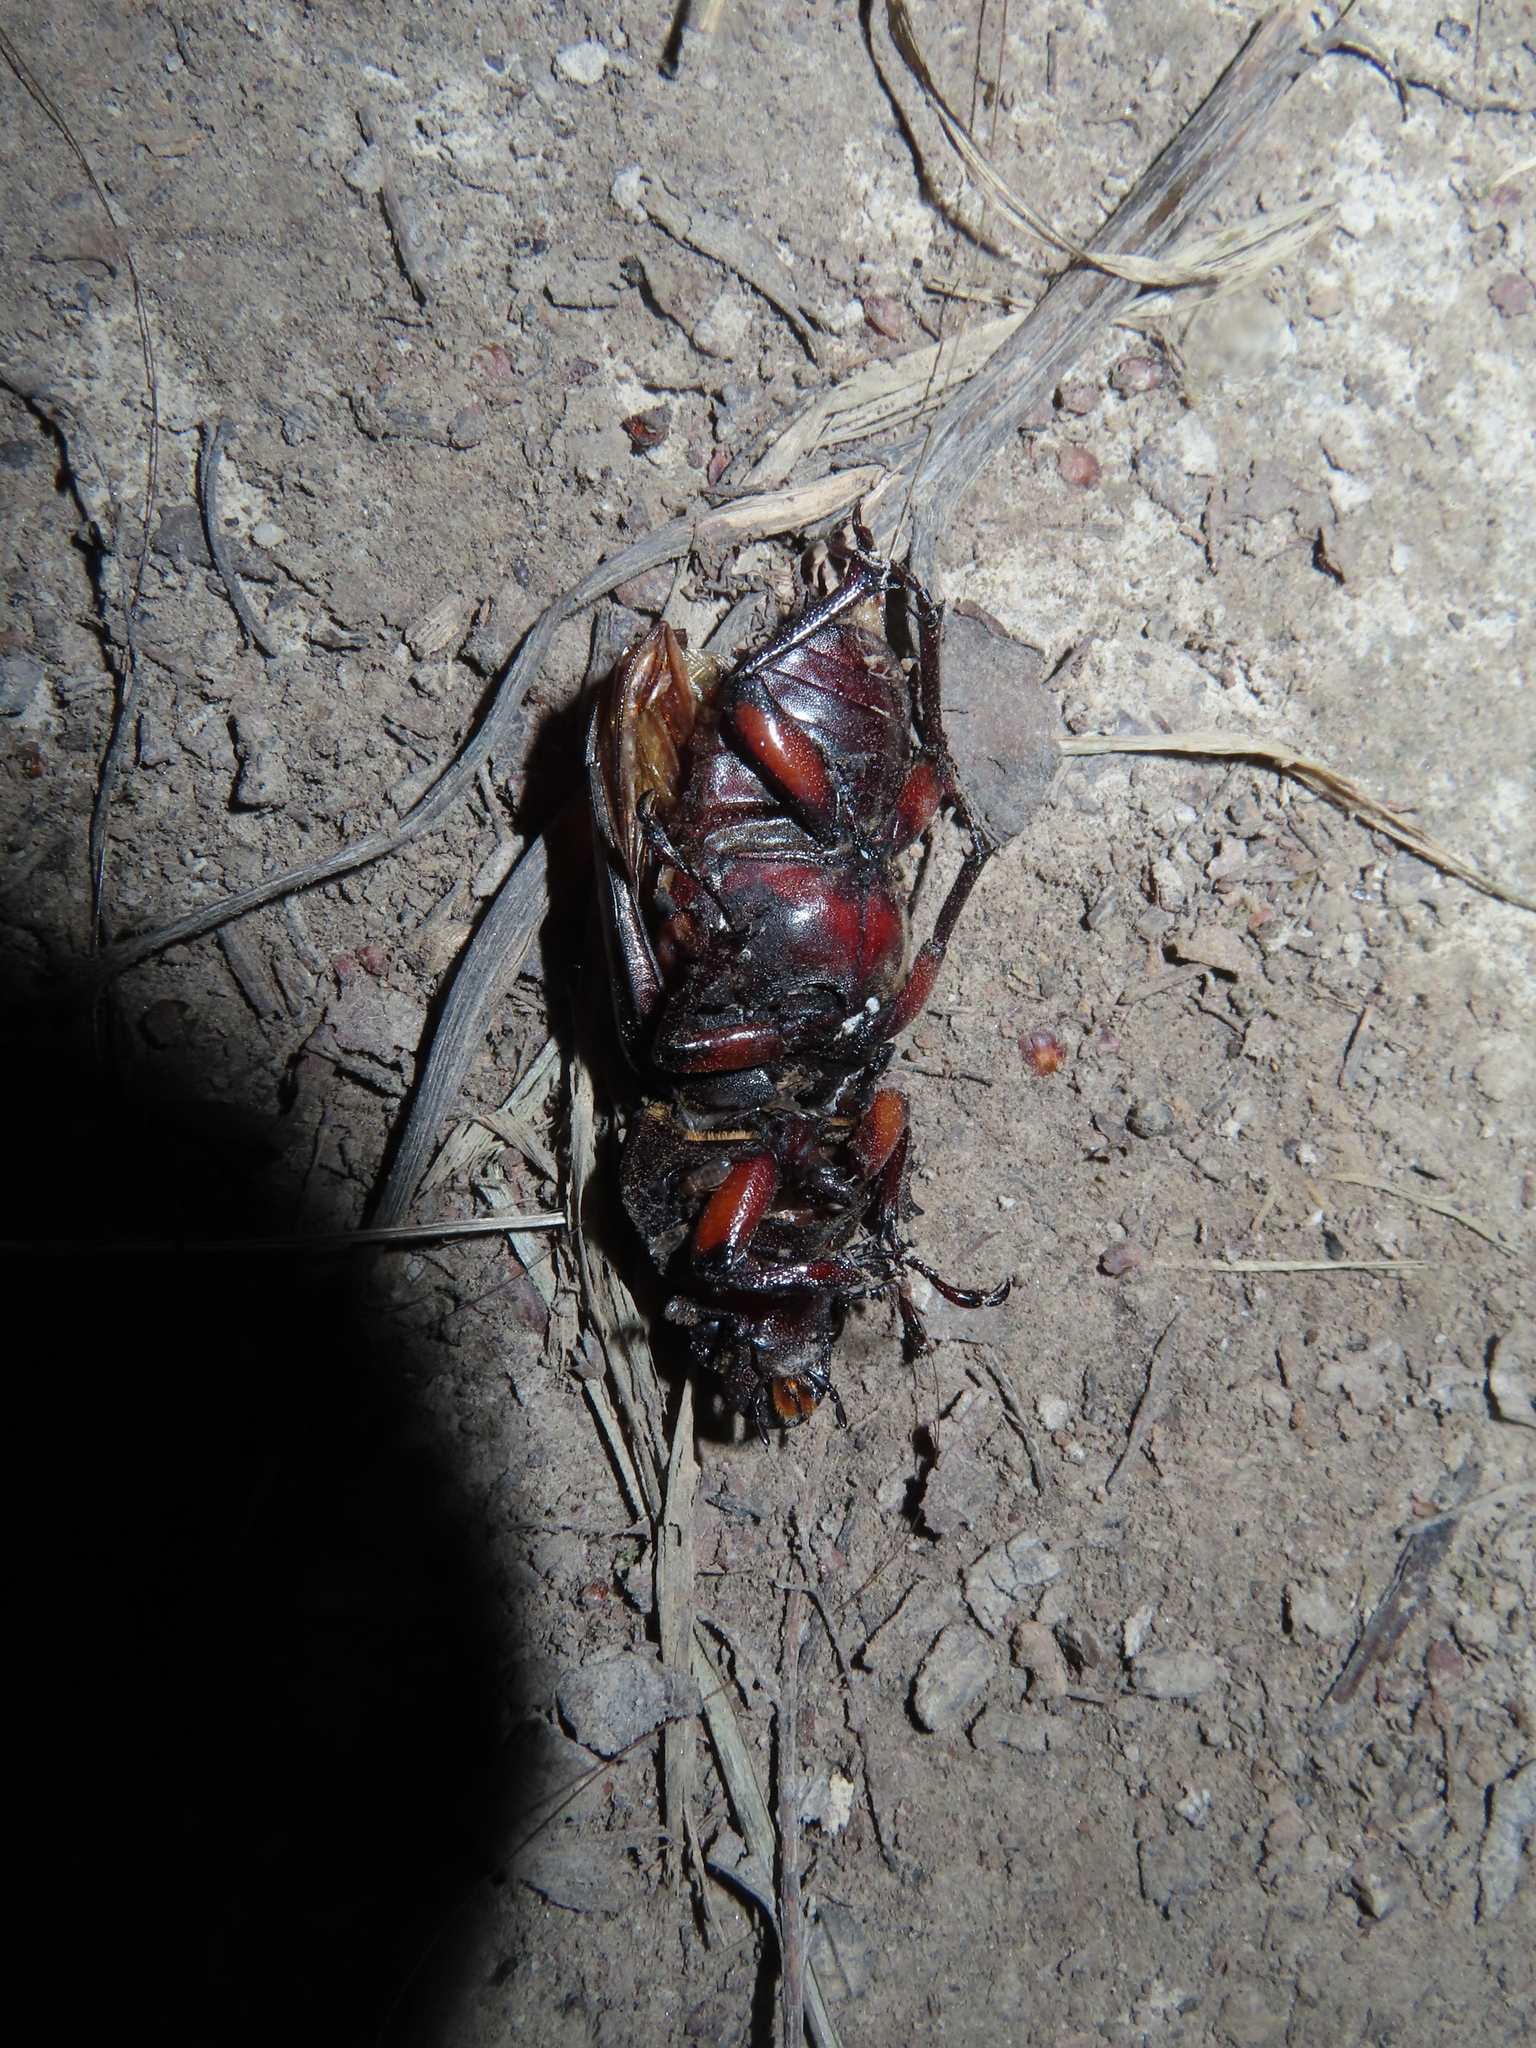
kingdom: Animalia
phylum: Arthropoda
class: Insecta
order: Coleoptera
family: Lucanidae
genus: Lucanus
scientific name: Lucanus capreolus
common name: Stag beetle
